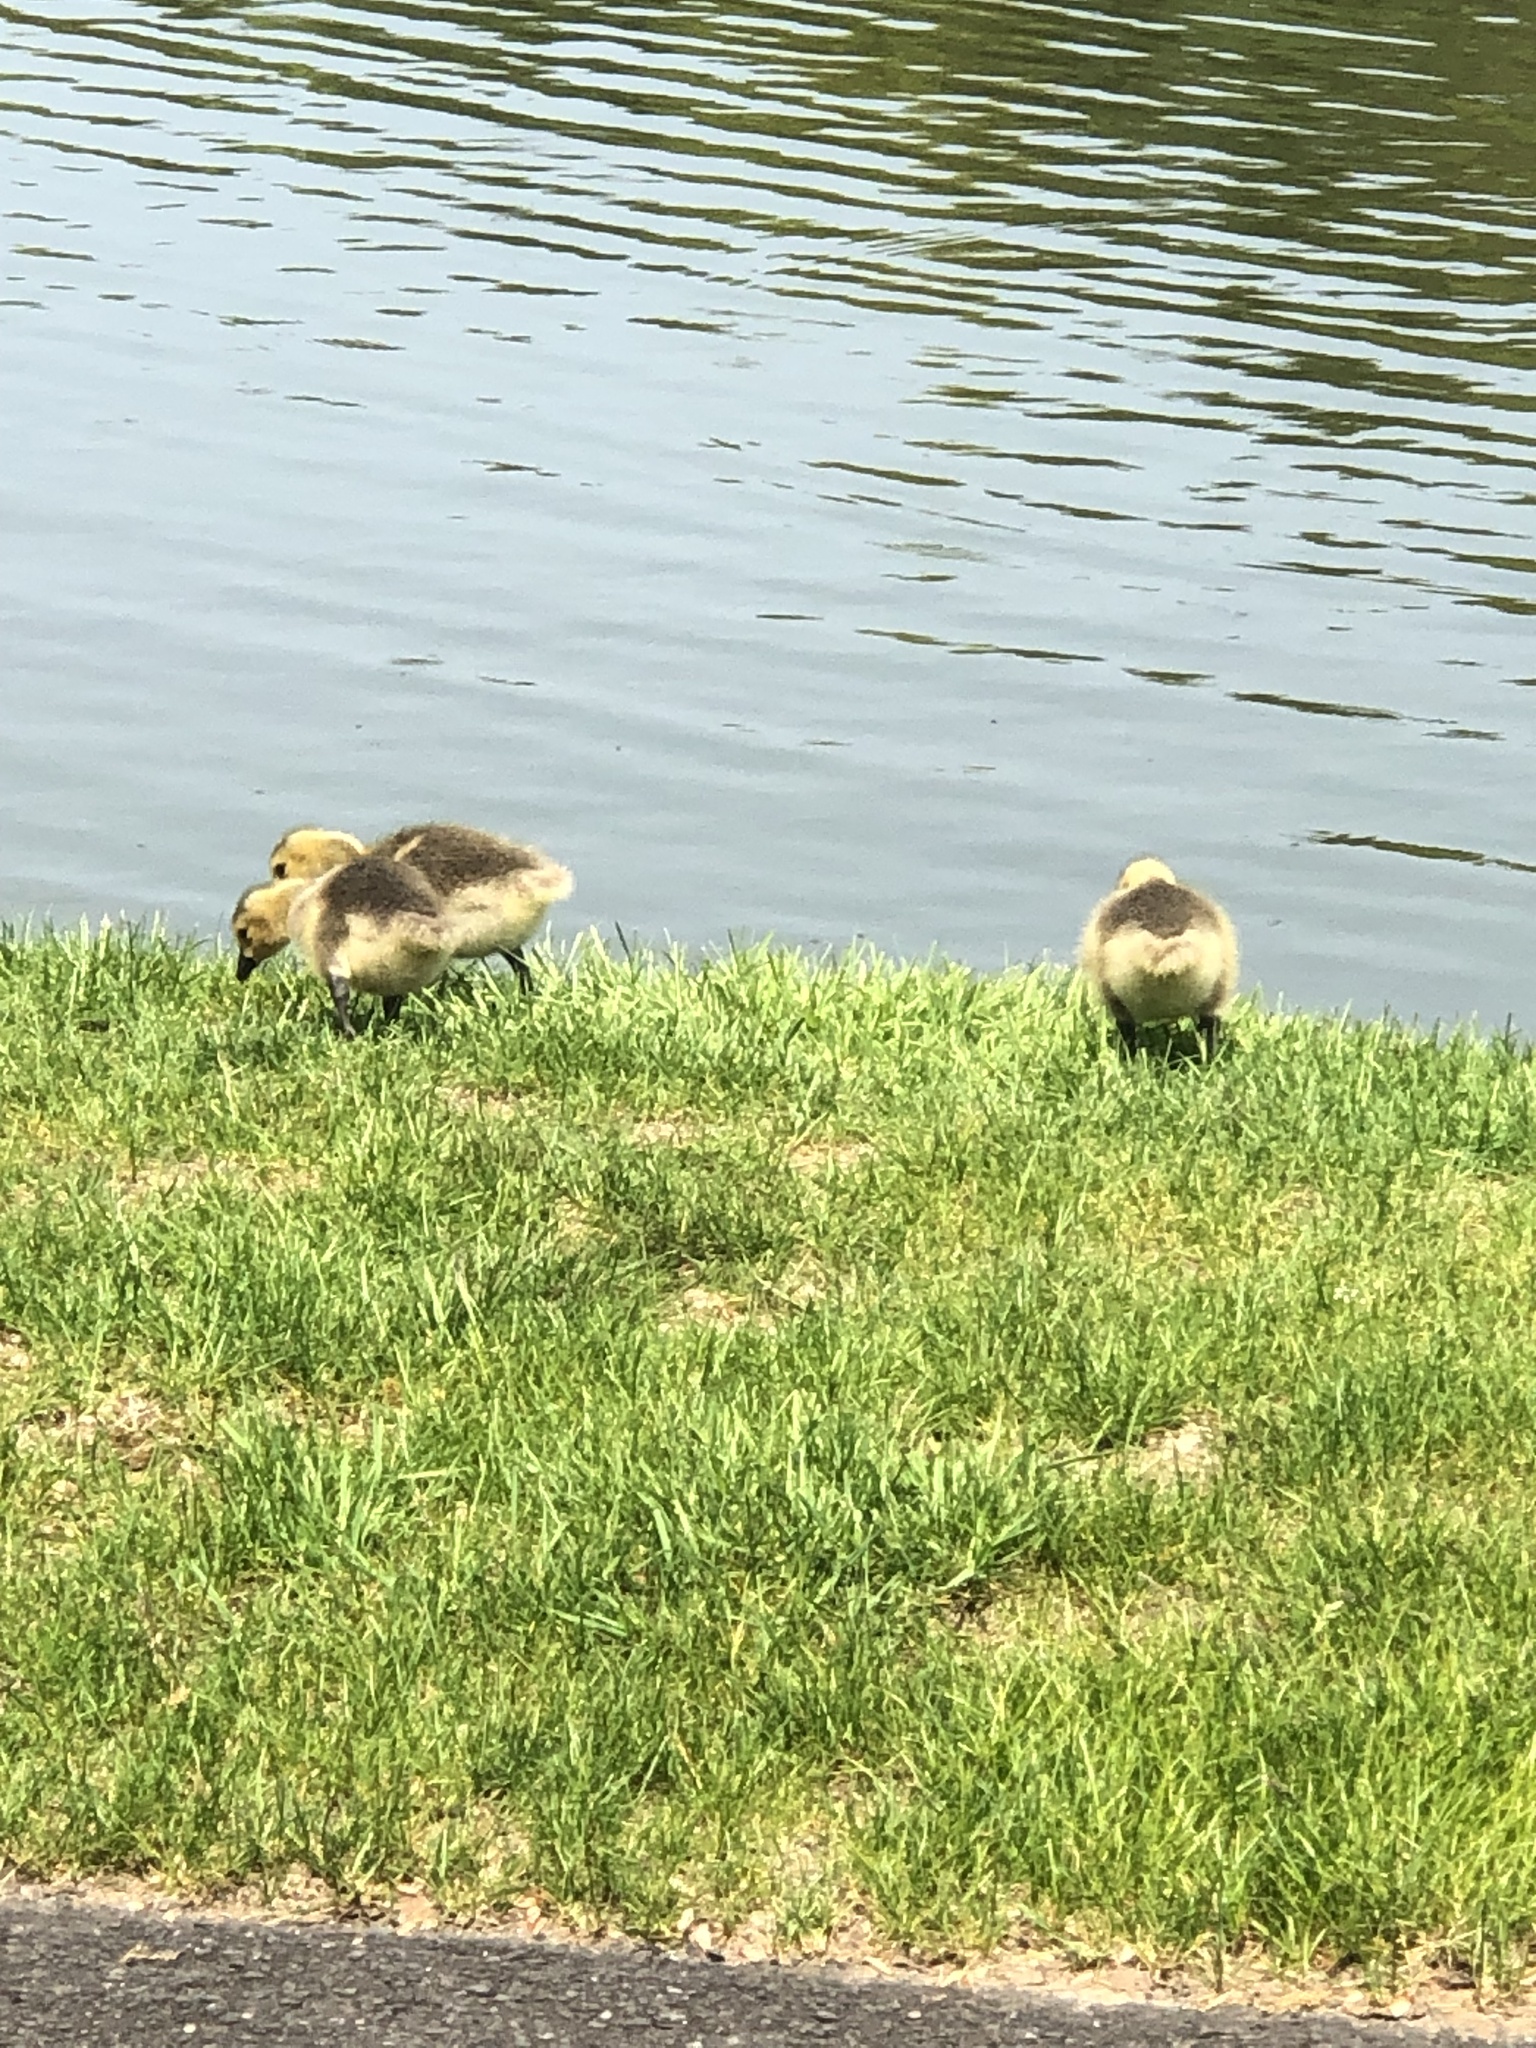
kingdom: Animalia
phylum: Chordata
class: Aves
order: Anseriformes
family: Anatidae
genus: Branta
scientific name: Branta canadensis
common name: Canada goose
